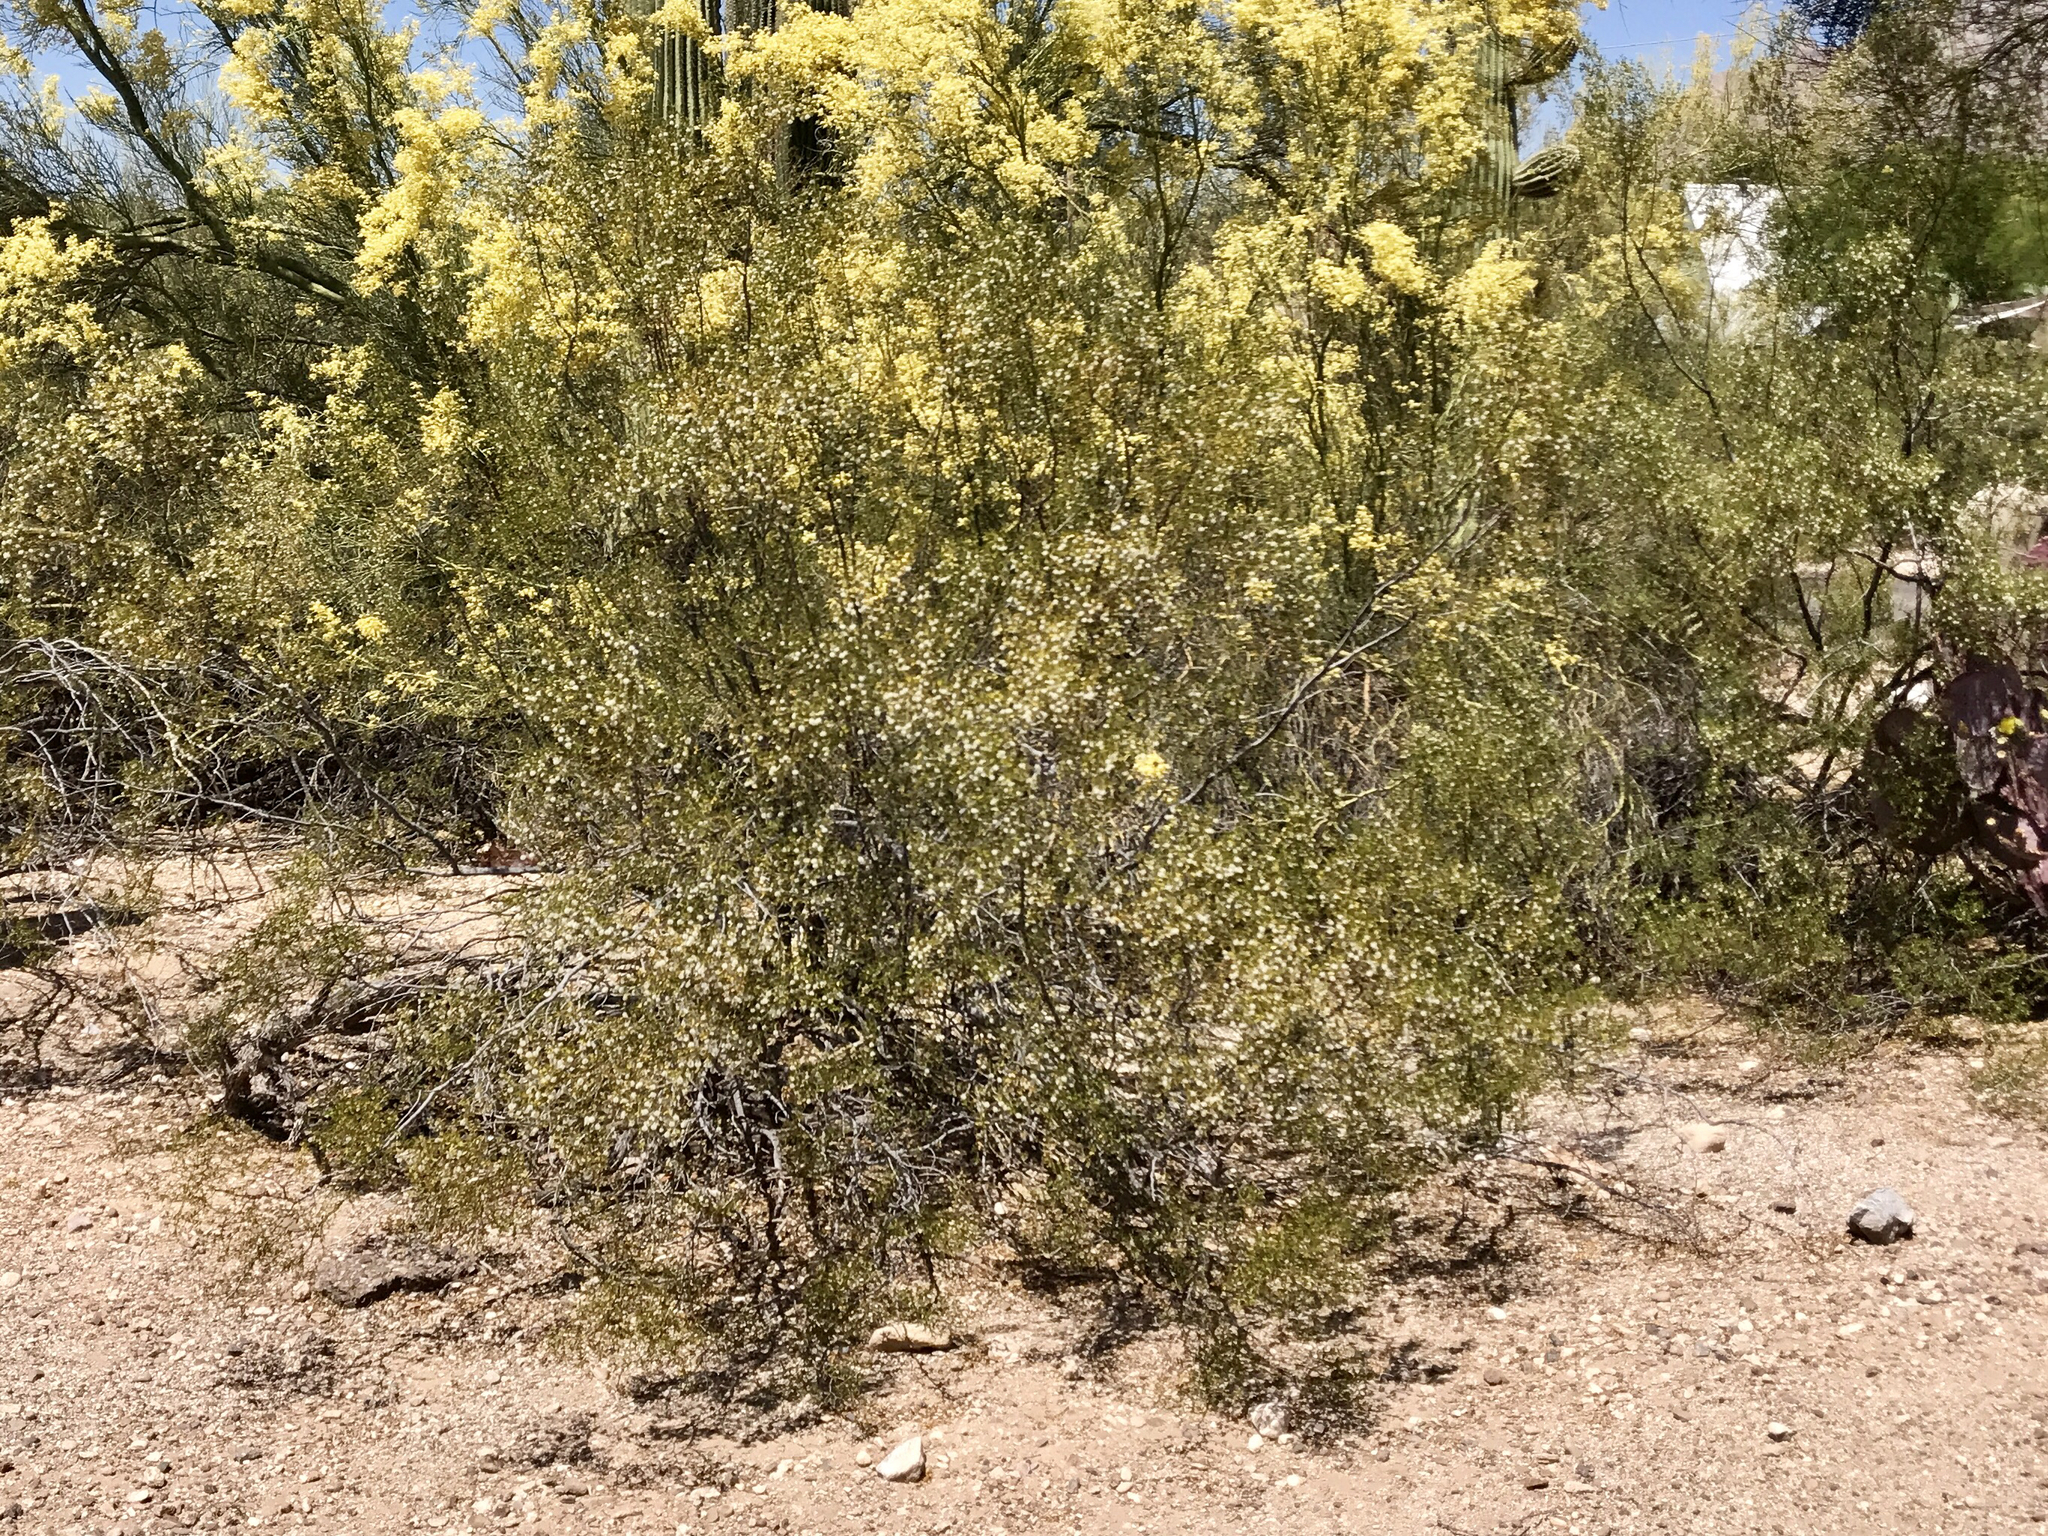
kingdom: Plantae
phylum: Tracheophyta
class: Magnoliopsida
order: Zygophyllales
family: Zygophyllaceae
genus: Larrea
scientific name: Larrea tridentata
